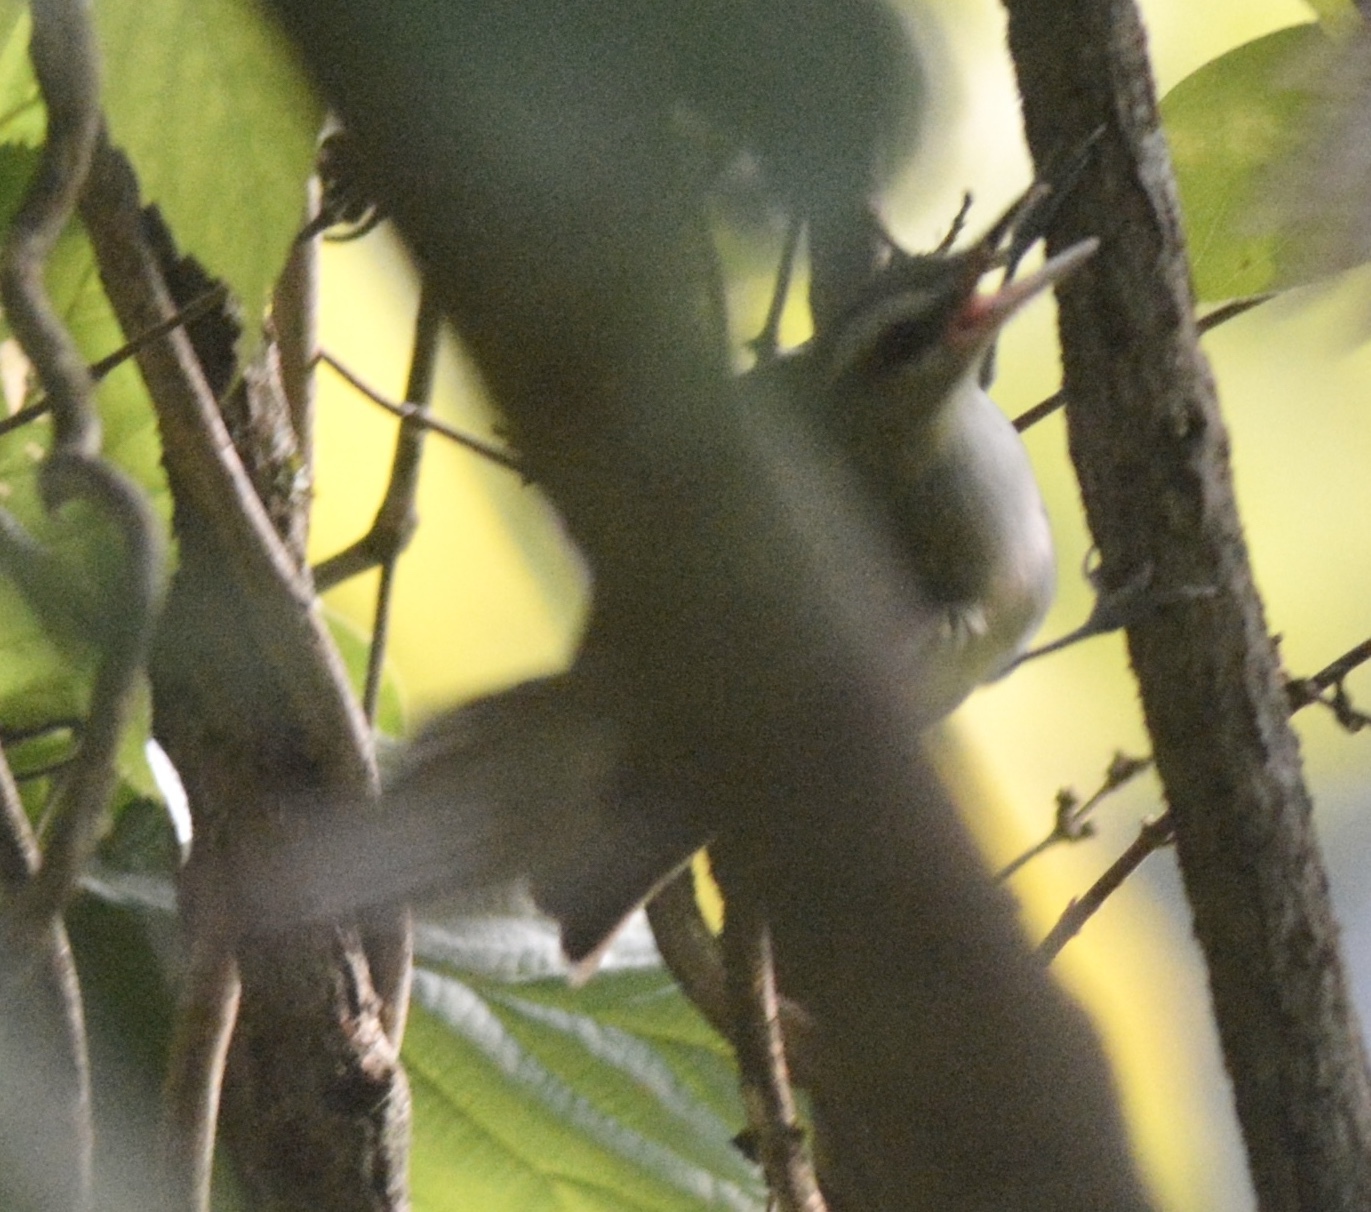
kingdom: Animalia
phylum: Chordata
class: Aves
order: Passeriformes
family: Vireonidae
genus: Vireo
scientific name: Vireo olivaceus
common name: Red-eyed vireo
